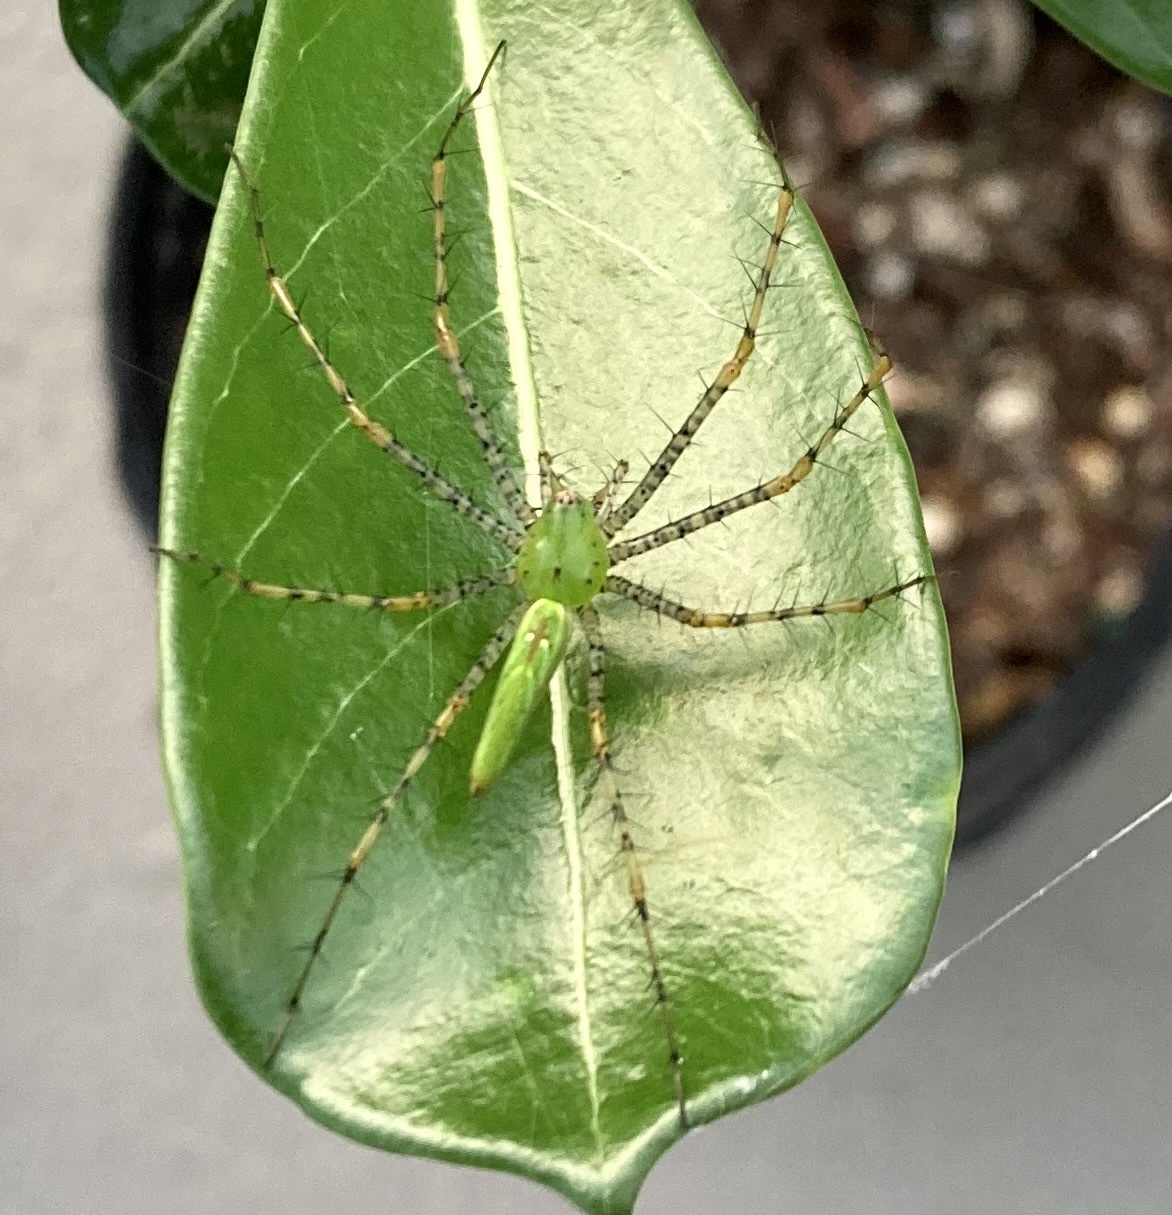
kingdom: Animalia
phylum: Arthropoda
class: Arachnida
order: Araneae
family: Oxyopidae
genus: Peucetia
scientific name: Peucetia viridans
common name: Lynx spiders
